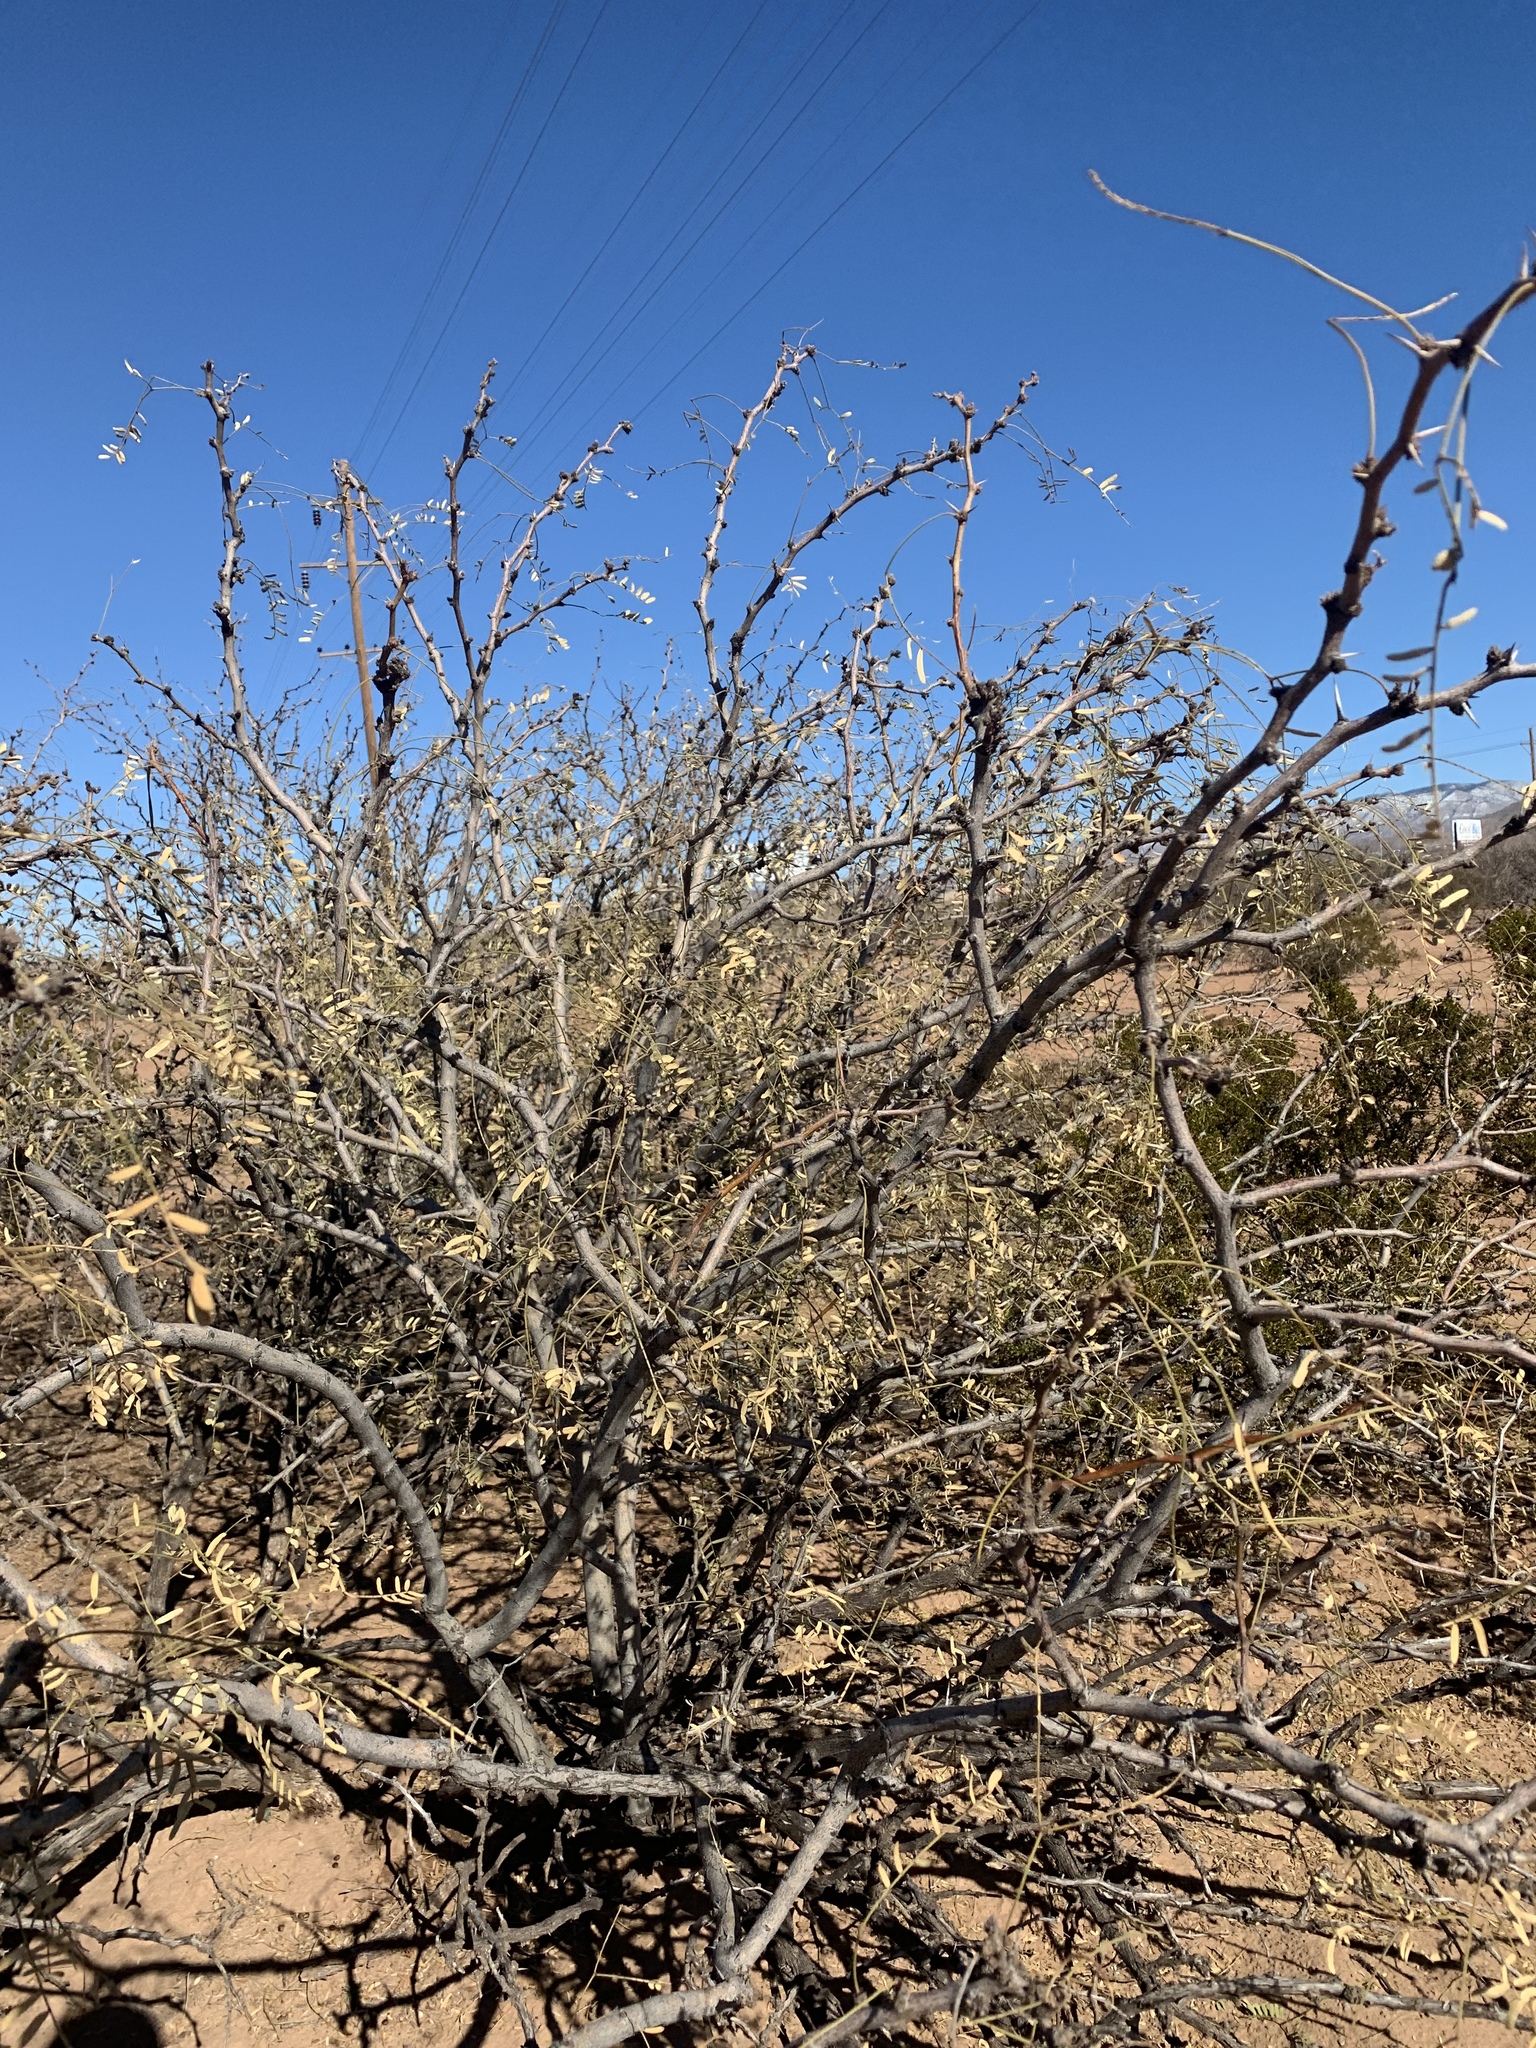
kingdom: Plantae
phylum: Tracheophyta
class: Magnoliopsida
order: Fabales
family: Fabaceae
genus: Prosopis
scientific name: Prosopis glandulosa
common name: Honey mesquite
